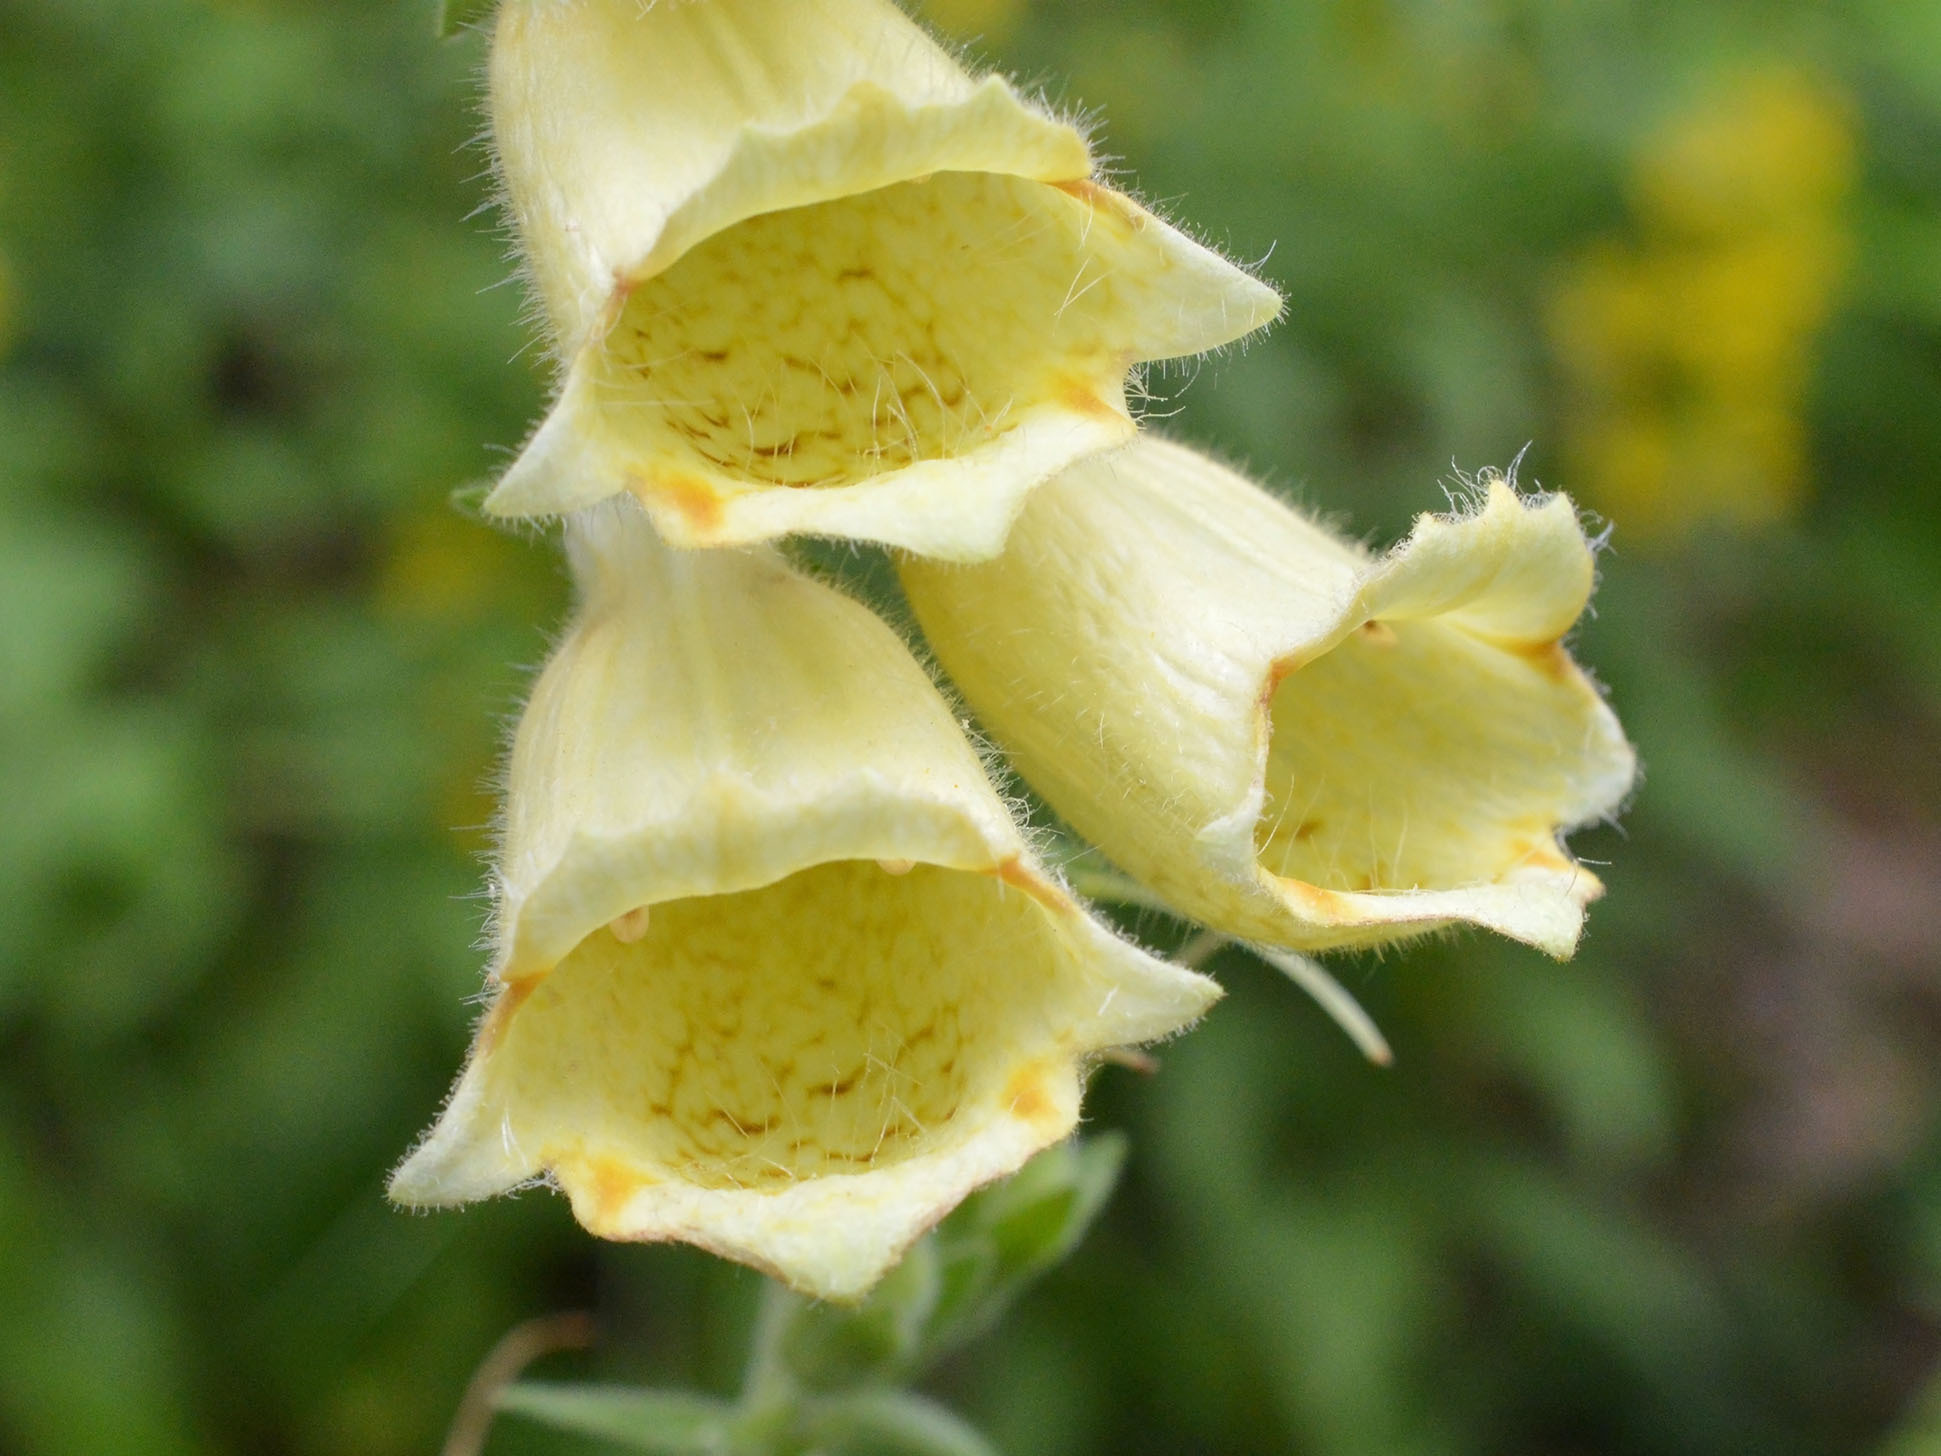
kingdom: Plantae
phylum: Tracheophyta
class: Magnoliopsida
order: Lamiales
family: Plantaginaceae
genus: Digitalis
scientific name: Digitalis grandiflora
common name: Yellow foxglove
